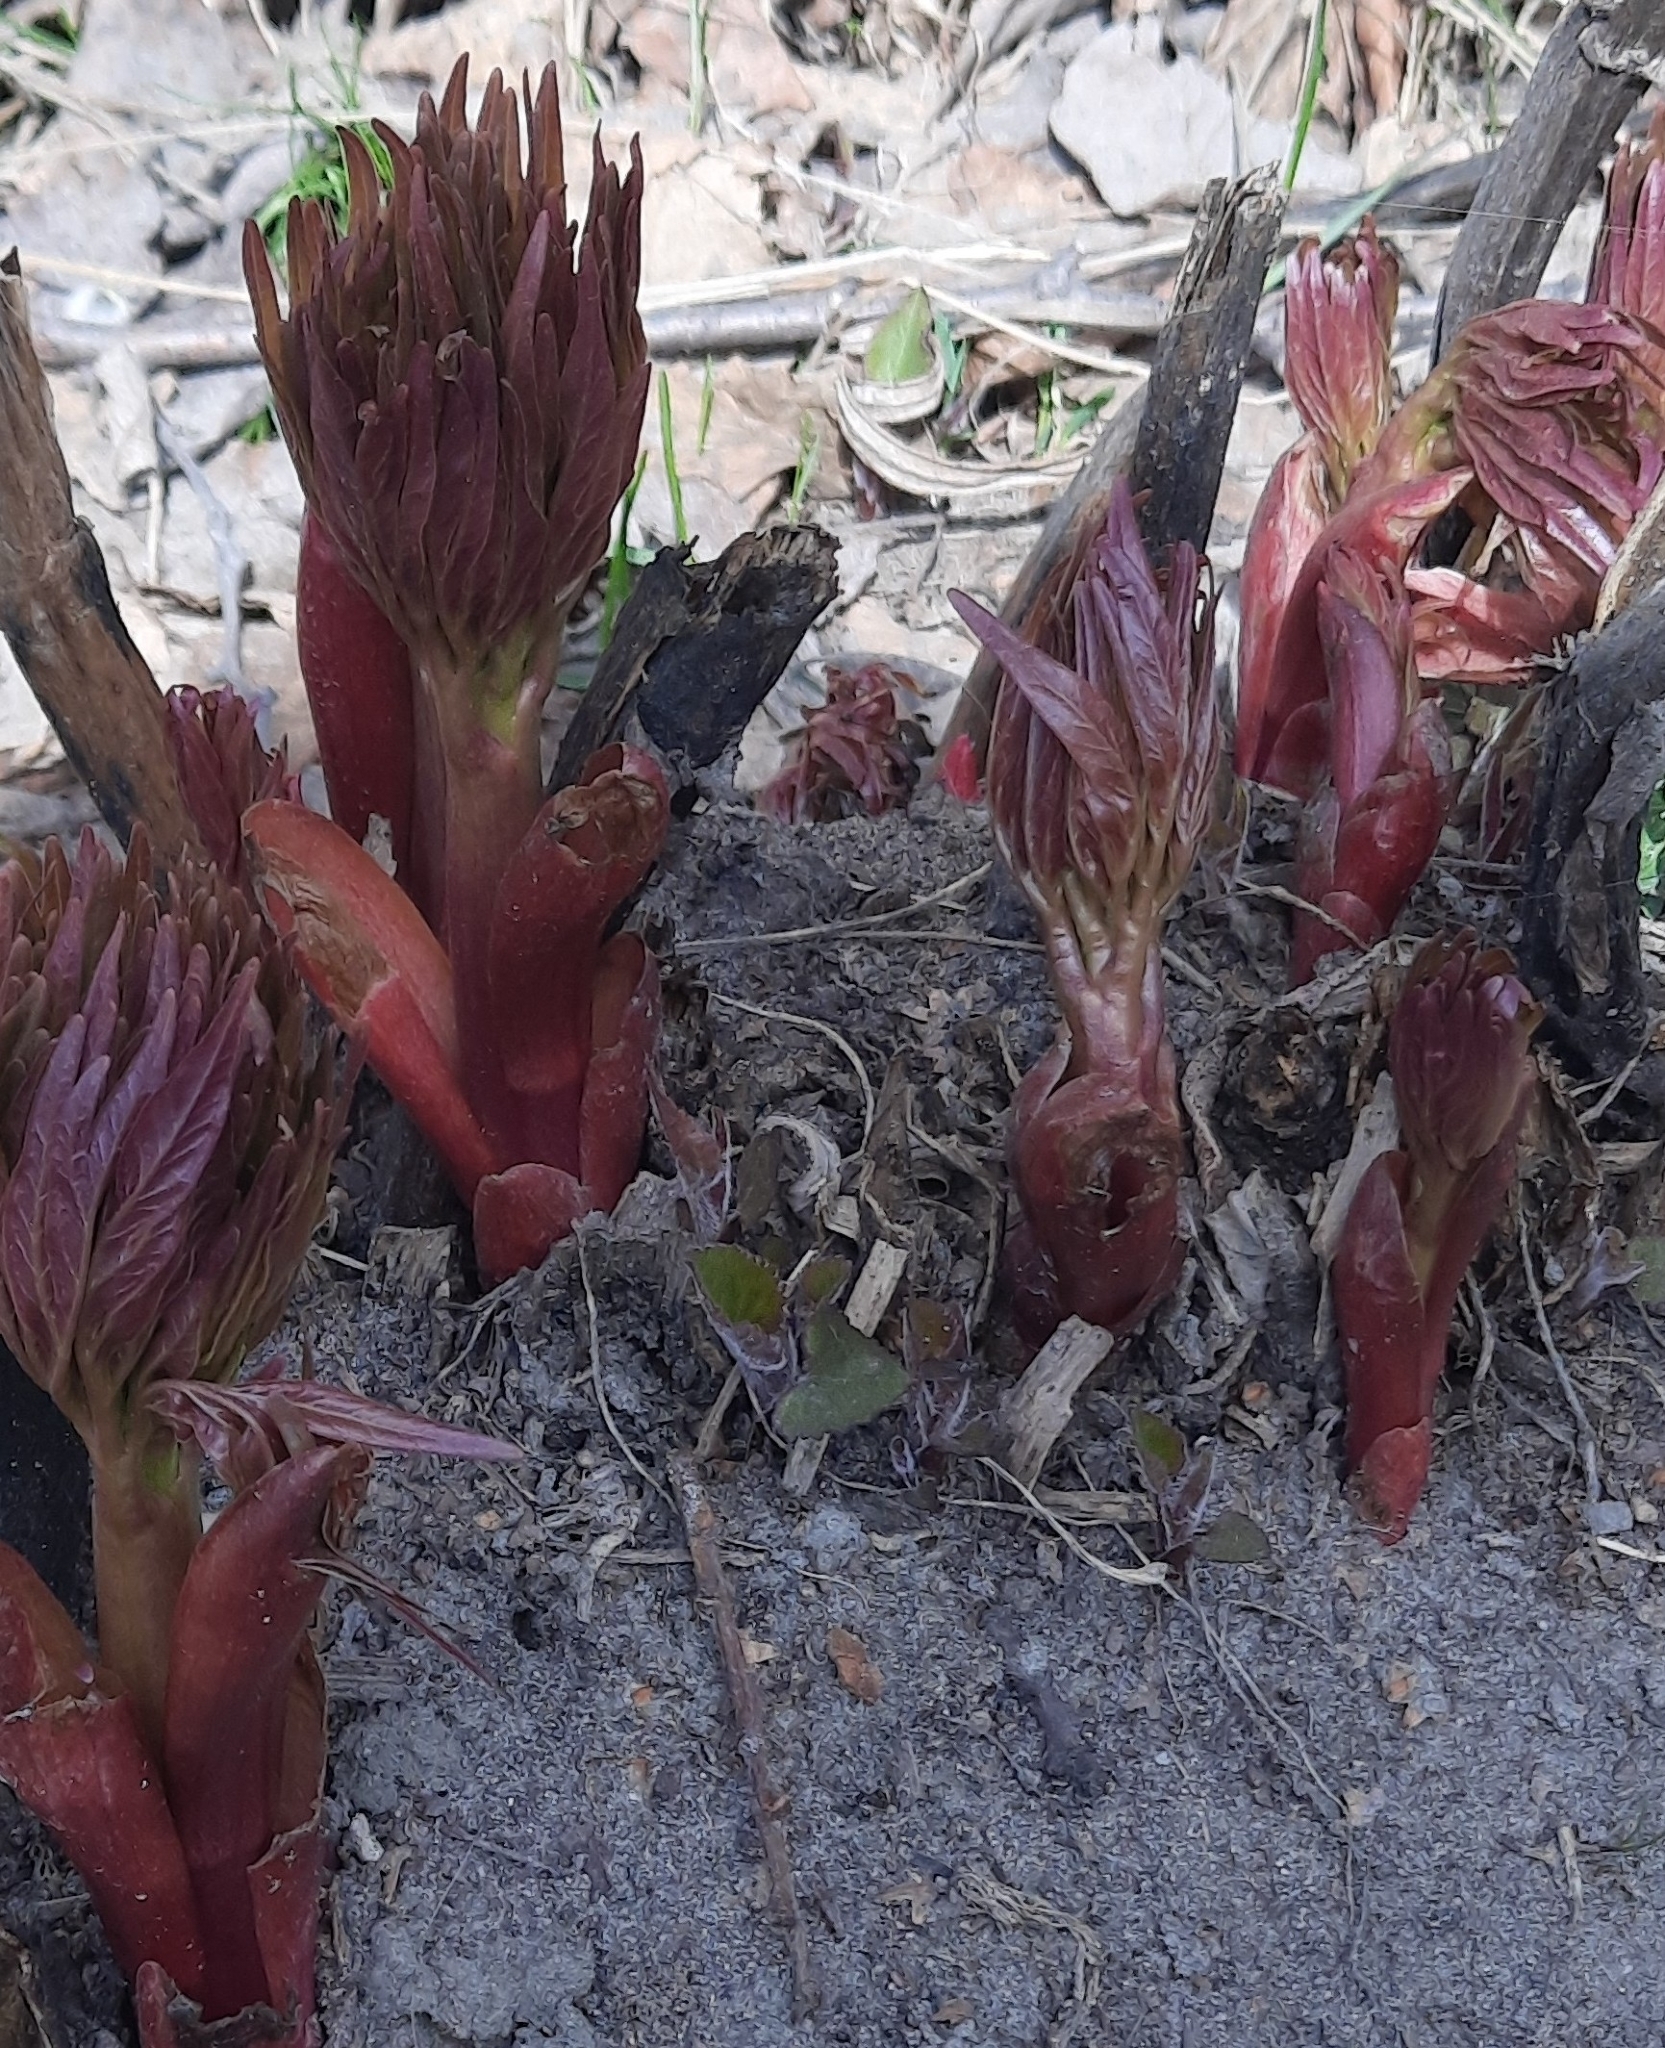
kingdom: Plantae
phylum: Tracheophyta
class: Magnoliopsida
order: Saxifragales
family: Paeoniaceae
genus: Paeonia
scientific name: Paeonia anomala
